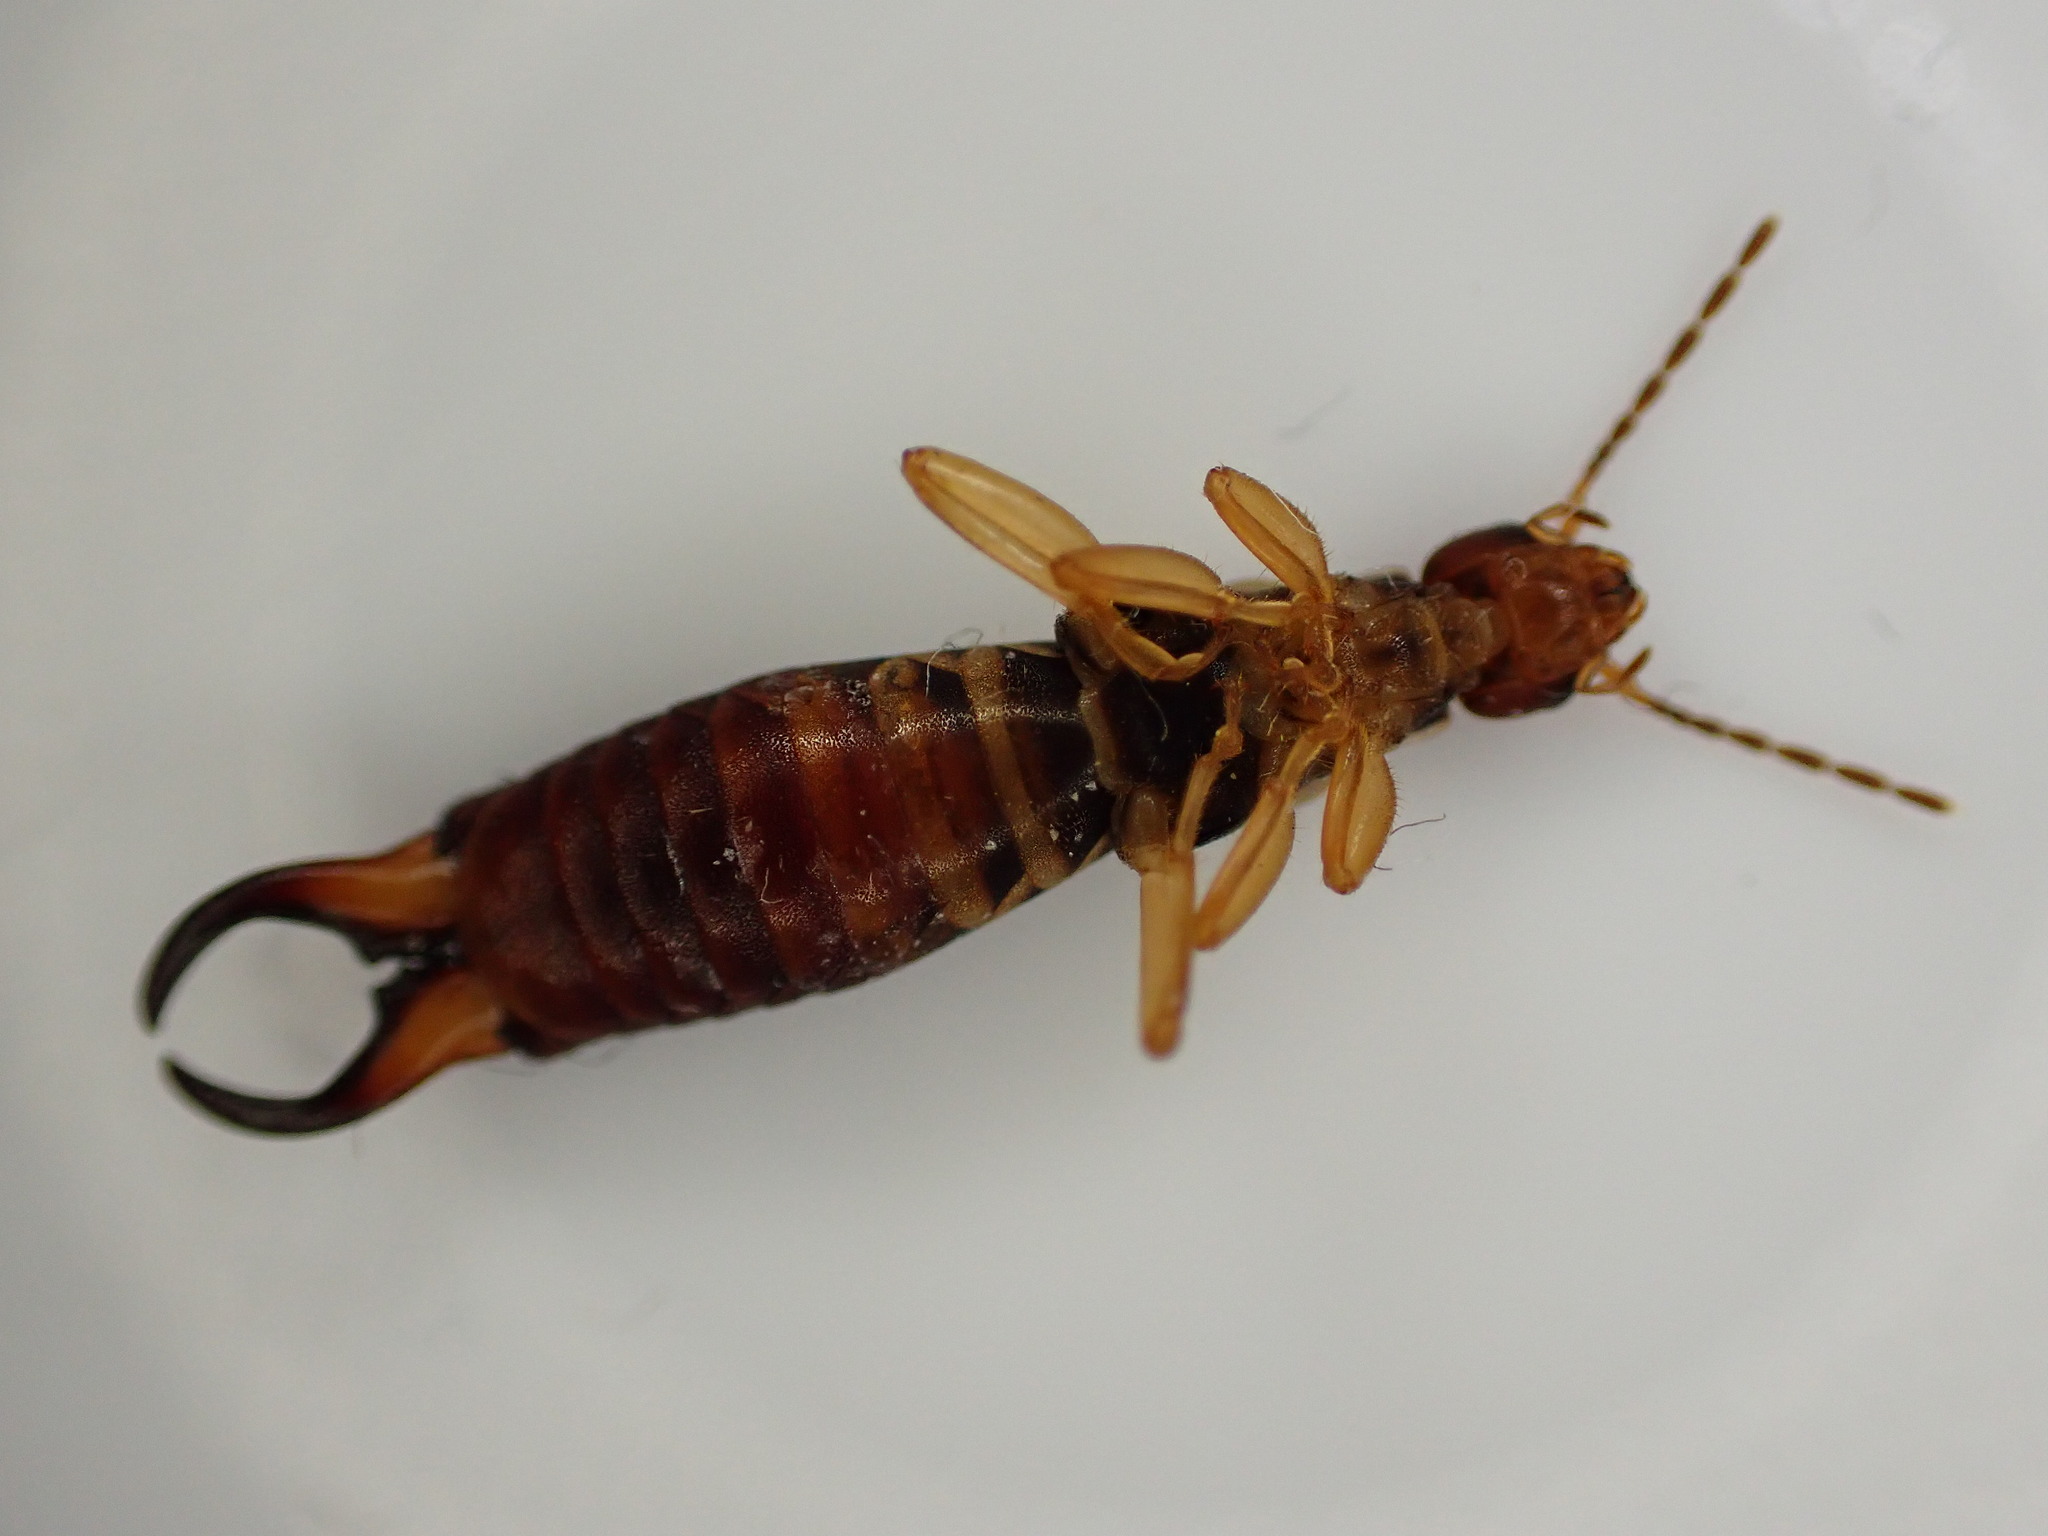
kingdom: Animalia
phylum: Arthropoda
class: Insecta
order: Dermaptera
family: Forficulidae
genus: Forficula
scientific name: Forficula
